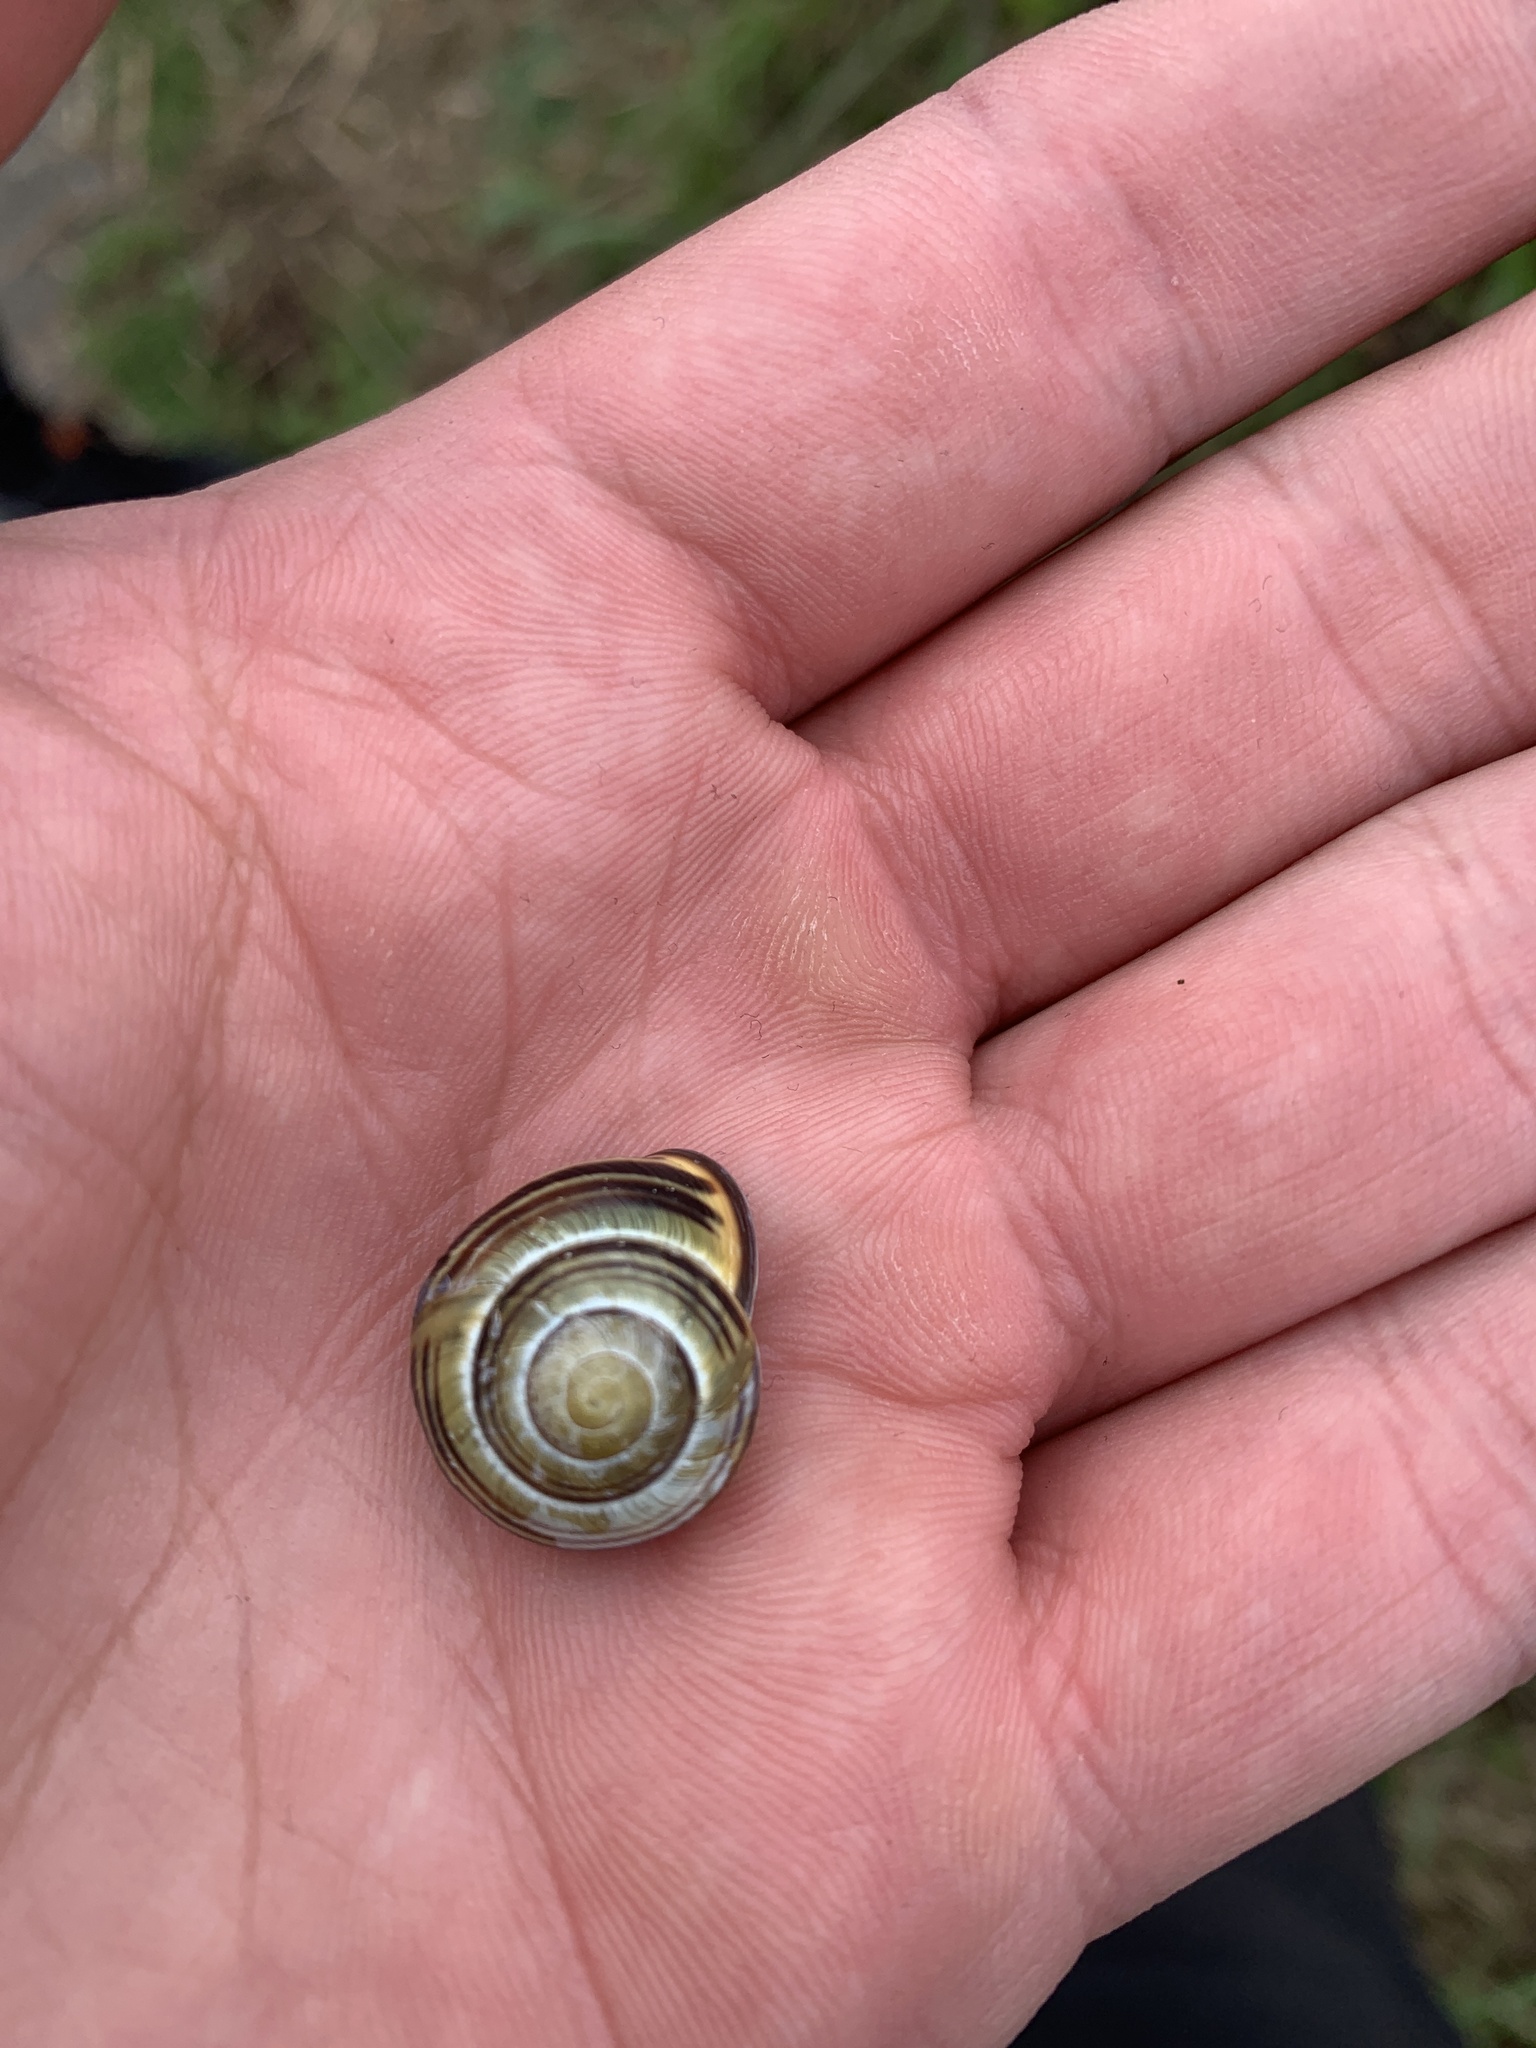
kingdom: Animalia
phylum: Mollusca
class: Gastropoda
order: Stylommatophora
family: Helicidae
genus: Cepaea
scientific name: Cepaea nemoralis
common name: Grovesnail
